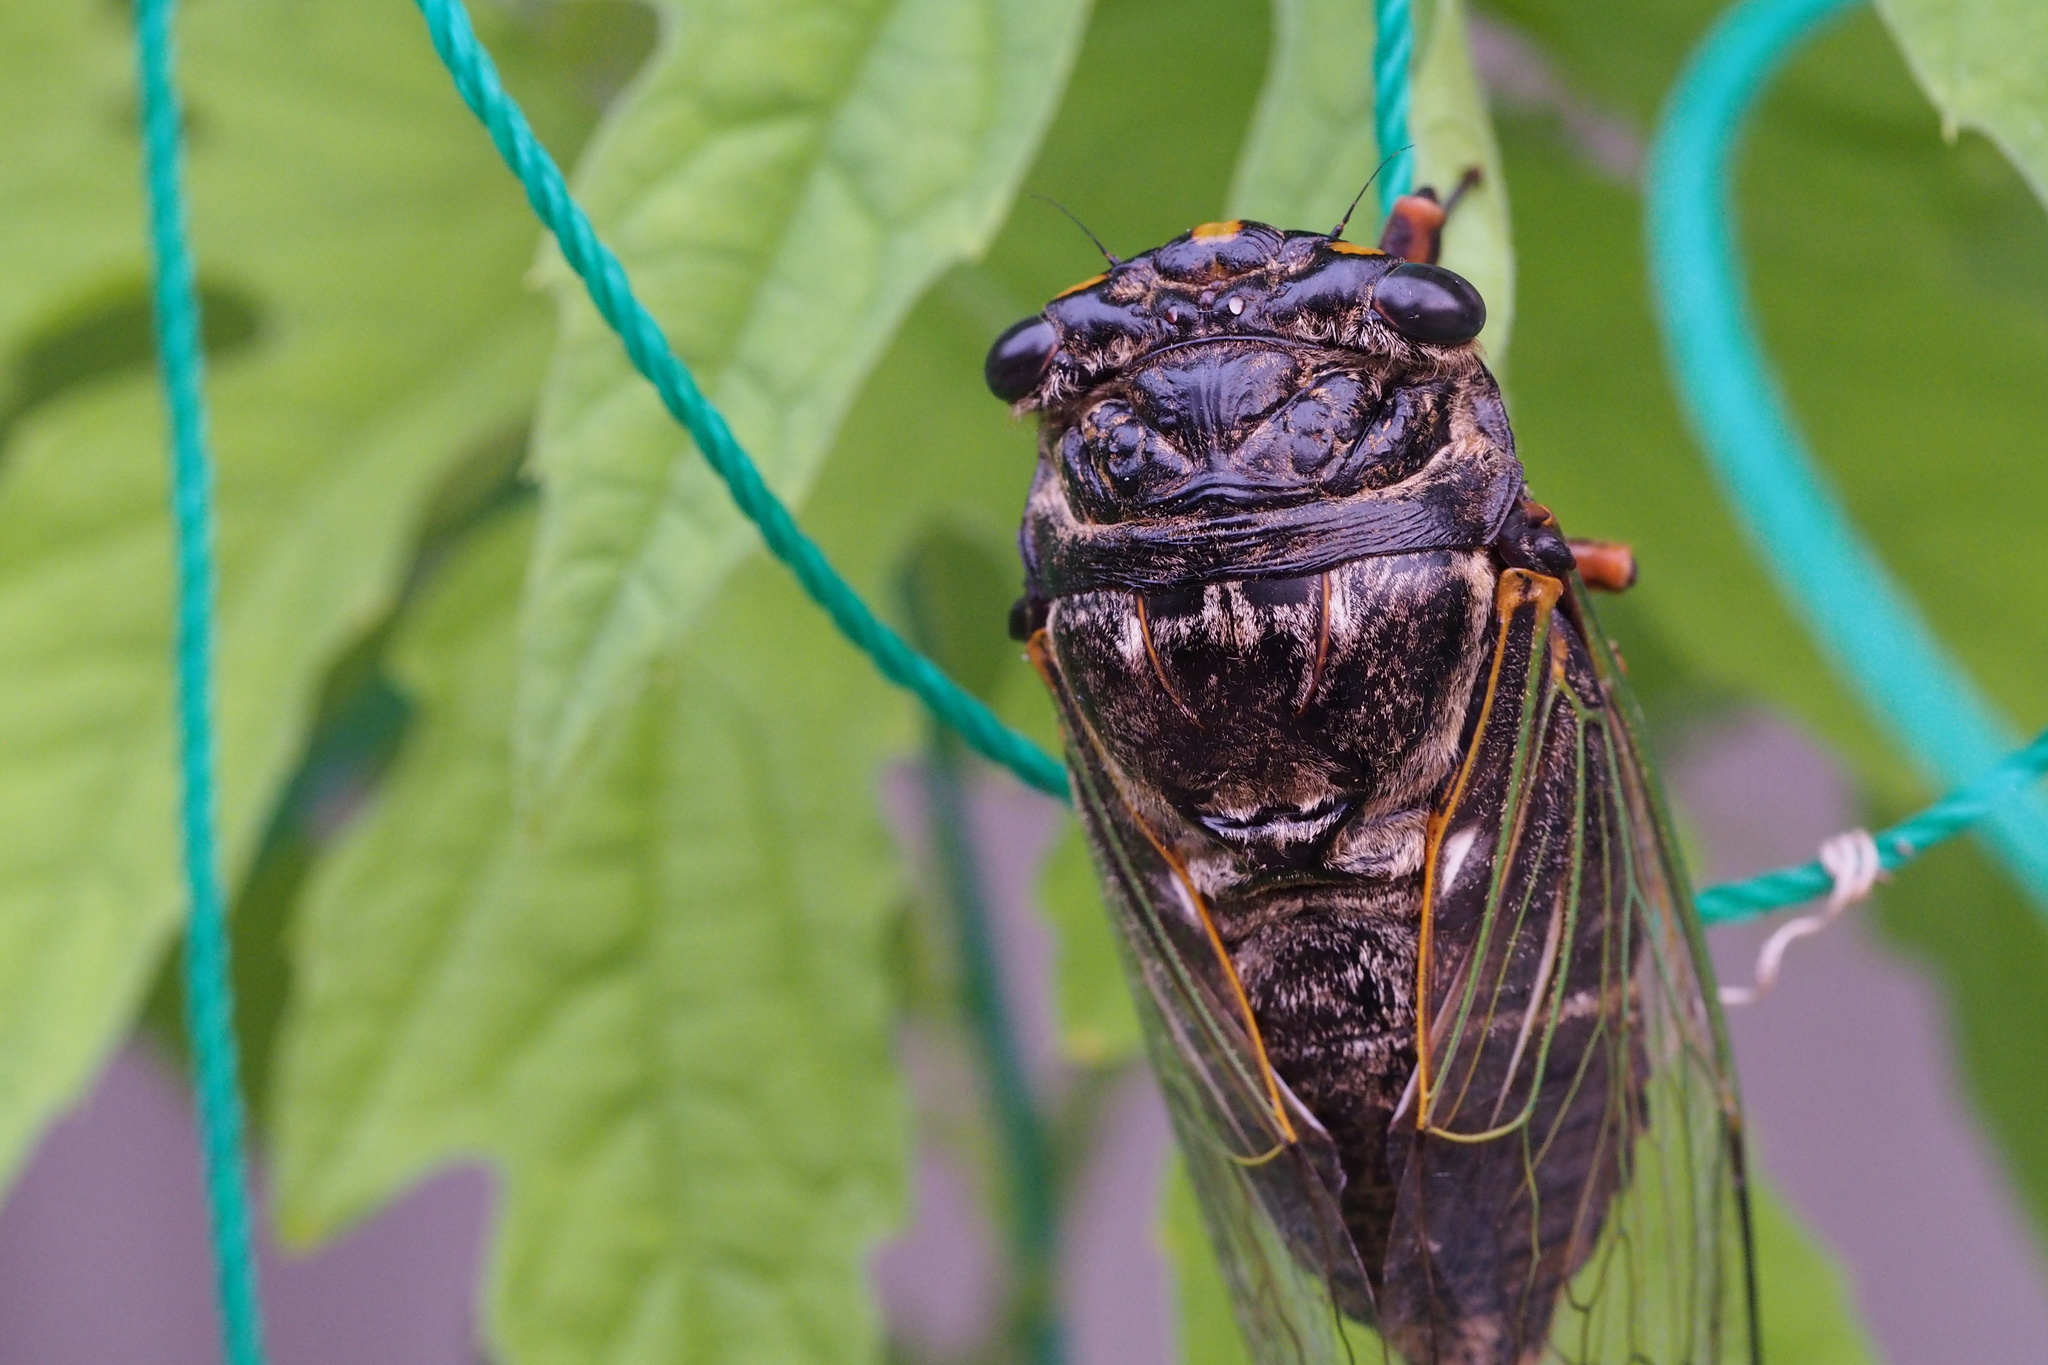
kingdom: Animalia
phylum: Arthropoda
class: Insecta
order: Hemiptera
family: Cicadidae
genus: Cryptotympana
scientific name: Cryptotympana facialis
